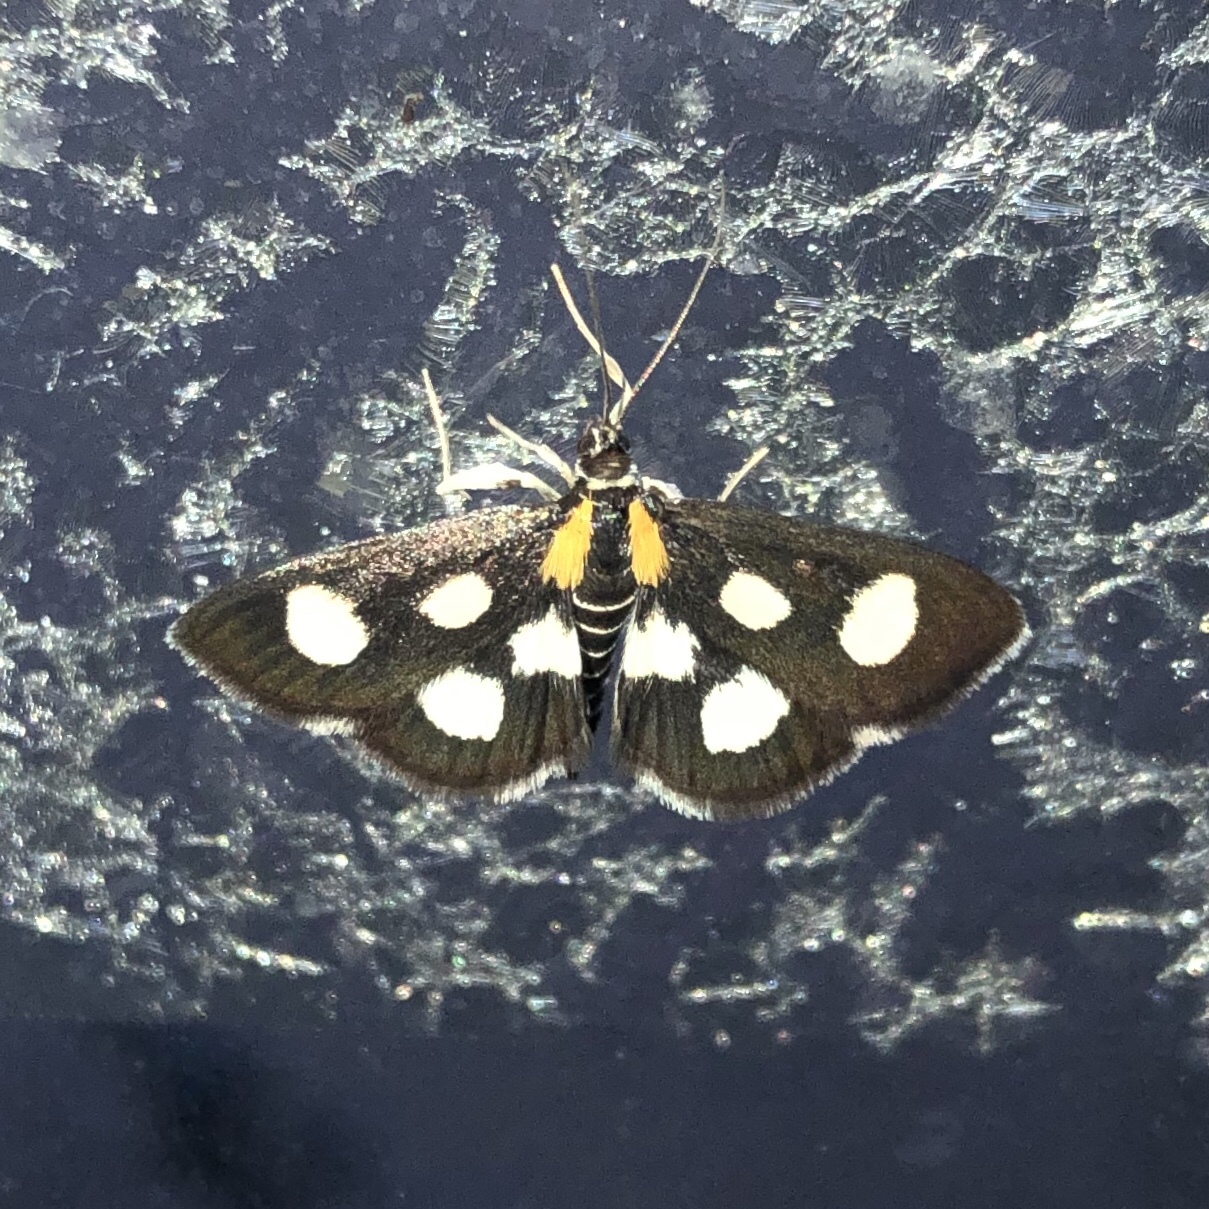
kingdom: Animalia
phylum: Arthropoda
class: Insecta
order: Lepidoptera
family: Crambidae
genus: Anania
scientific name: Anania funebris
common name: White-spotted sable moth
